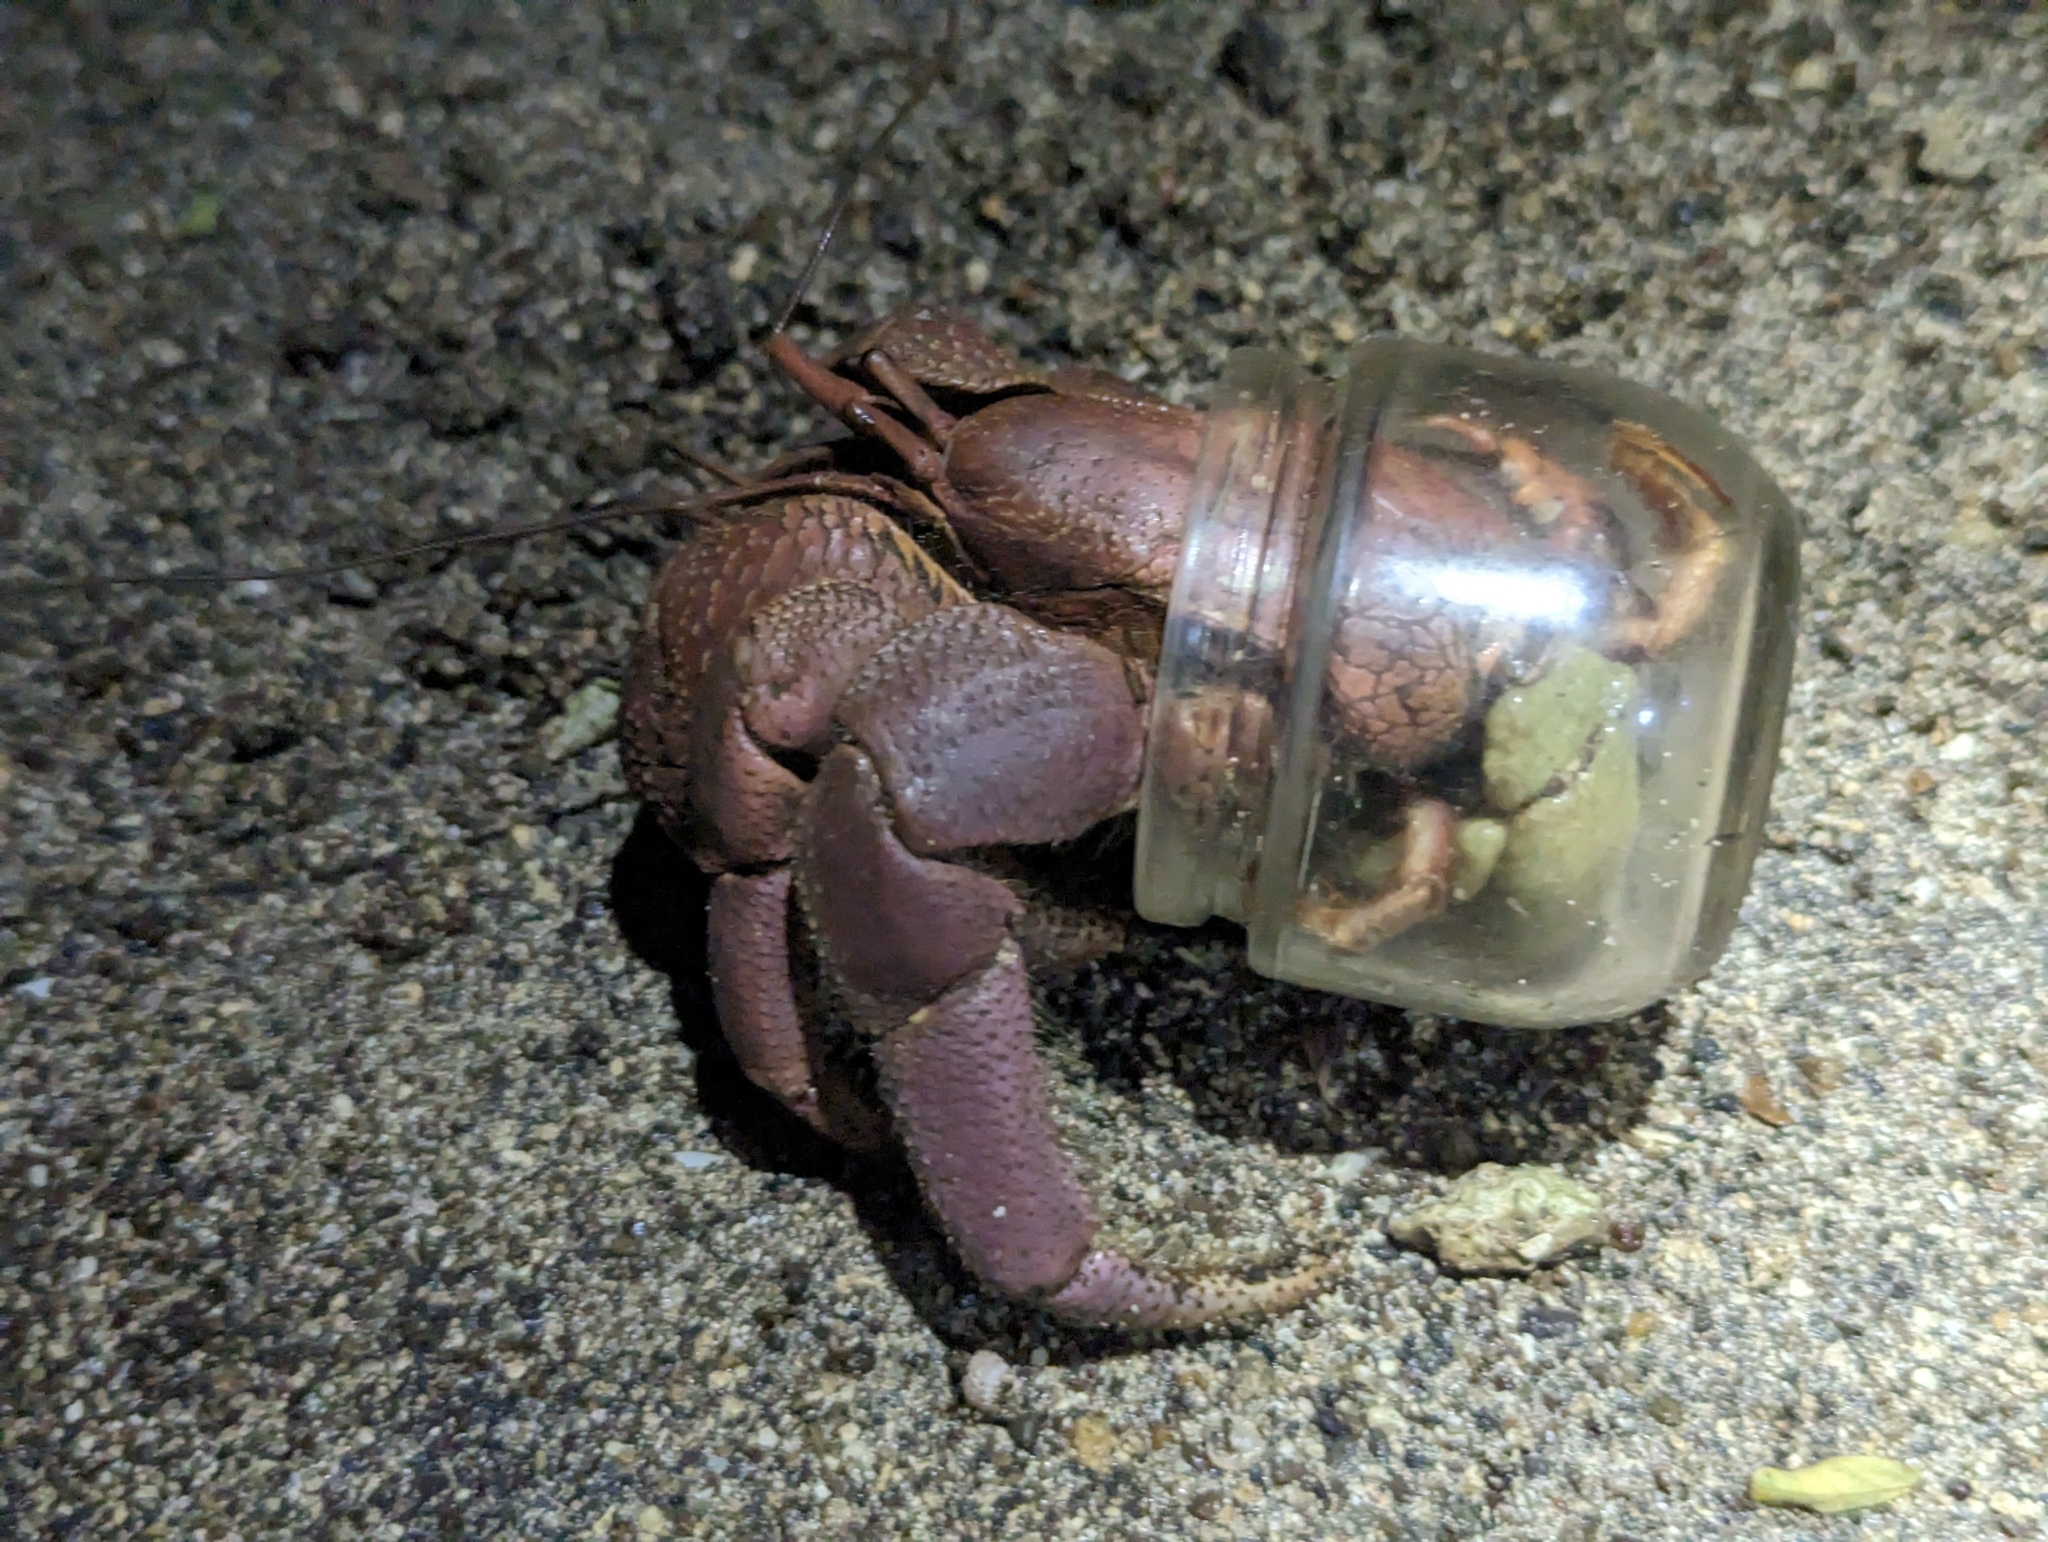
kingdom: Animalia
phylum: Arthropoda
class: Malacostraca
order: Decapoda
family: Coenobitidae
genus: Coenobita
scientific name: Coenobita brevimanus
